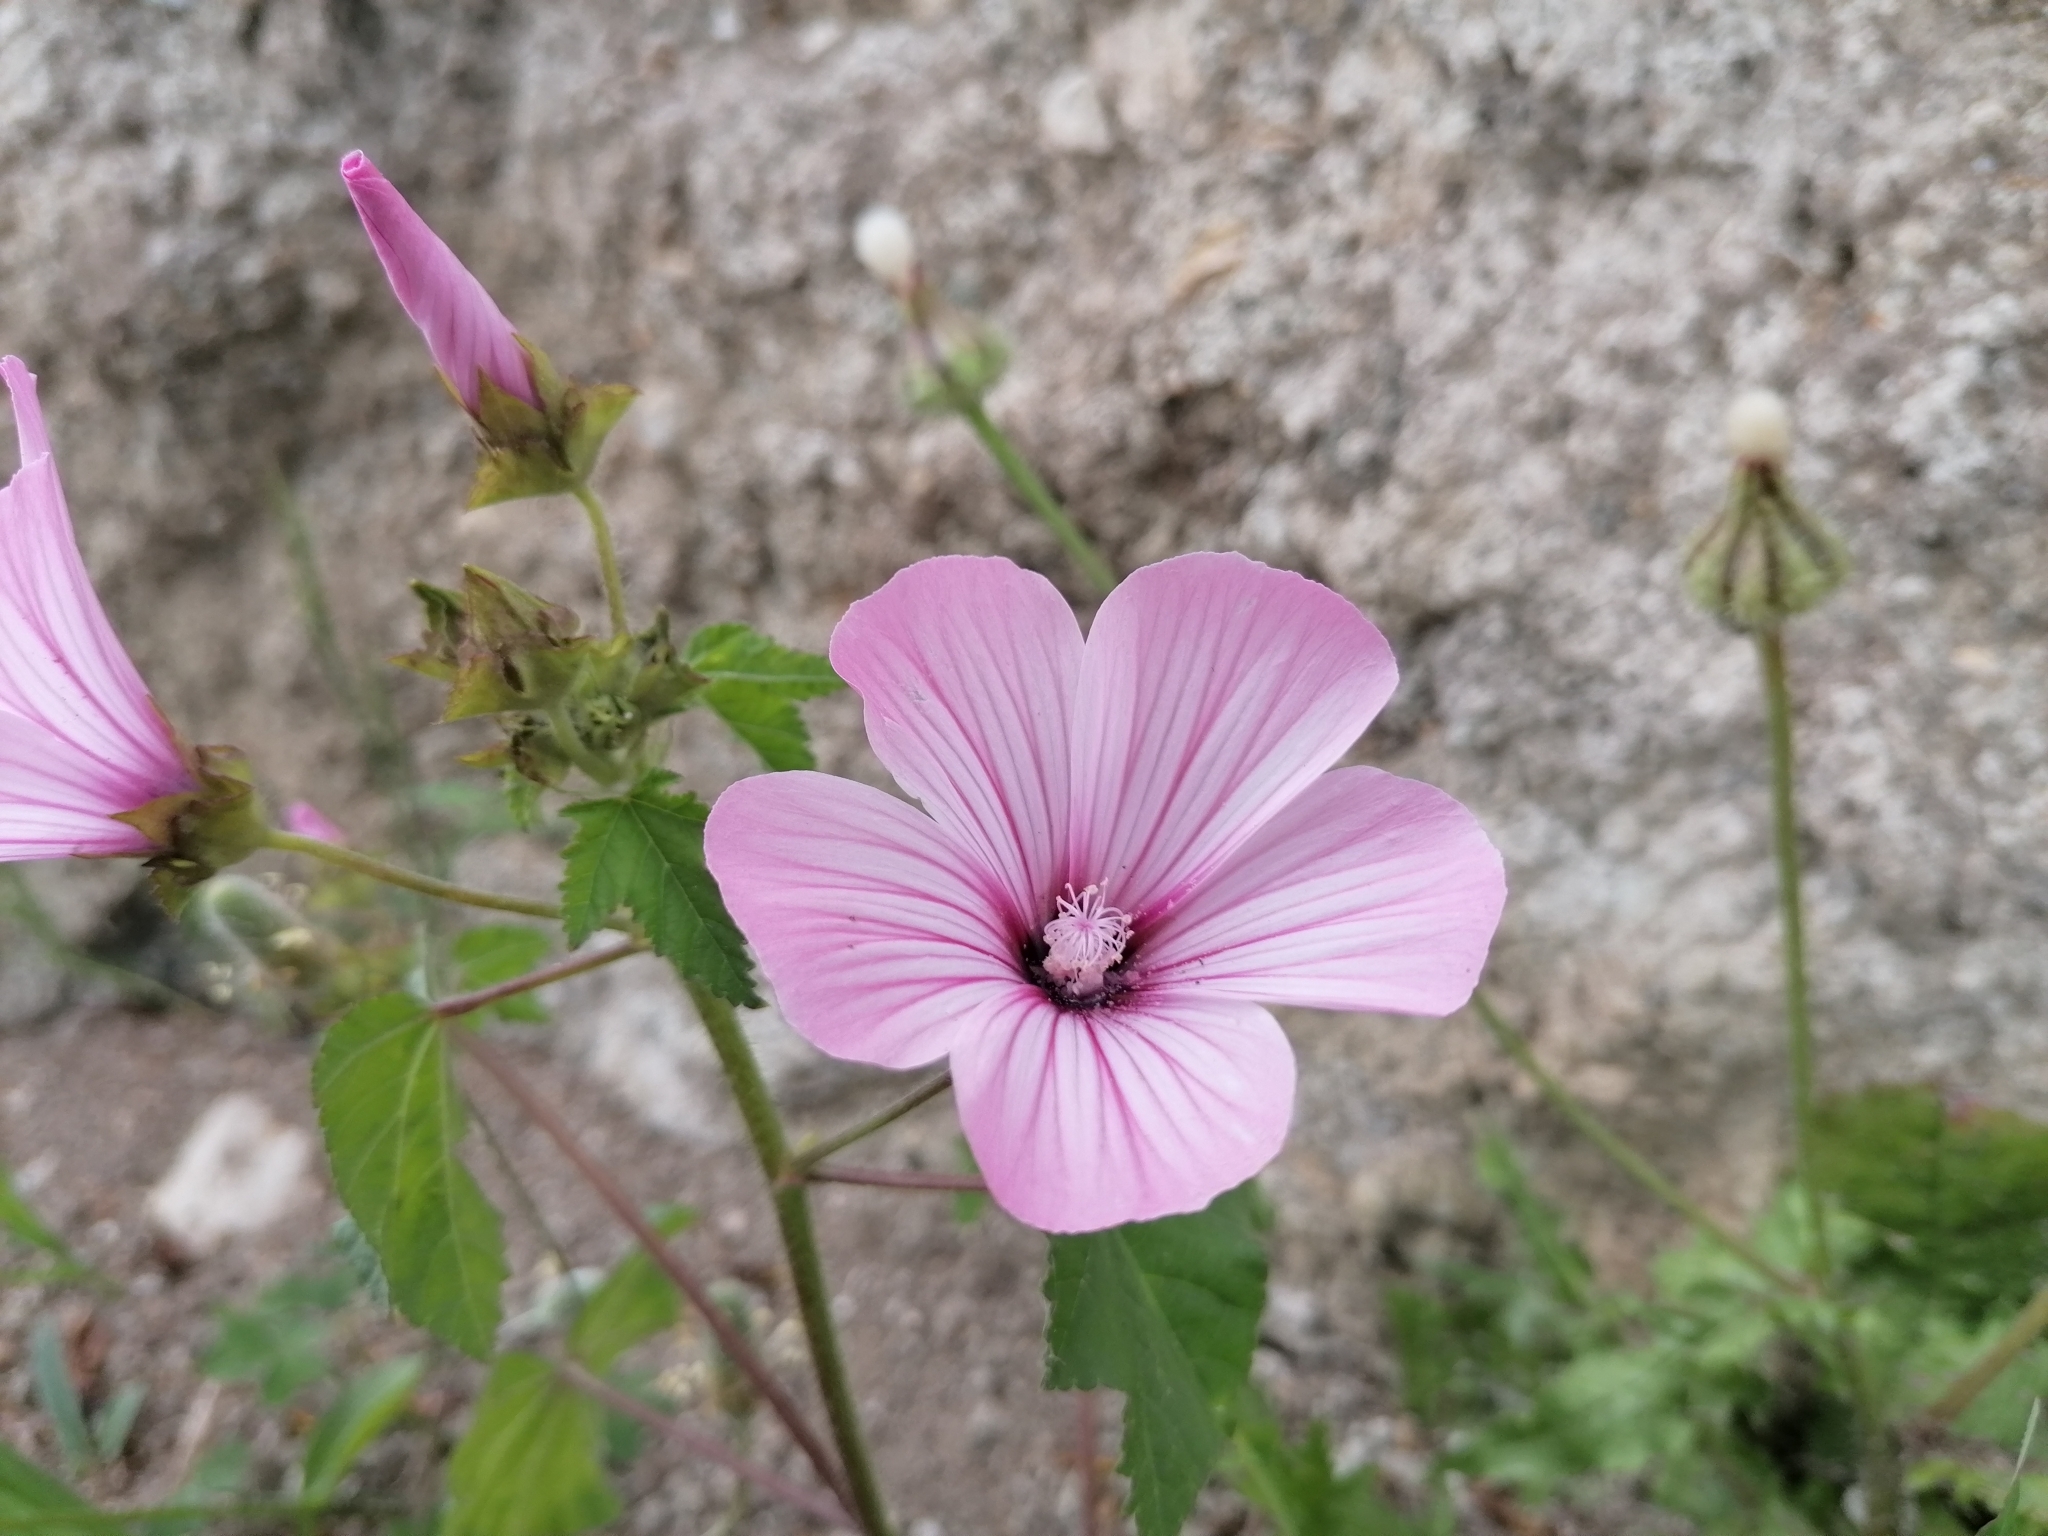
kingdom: Plantae
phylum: Tracheophyta
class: Magnoliopsida
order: Malvales
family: Malvaceae
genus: Malva
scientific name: Malva trimestris
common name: Royal mallow
